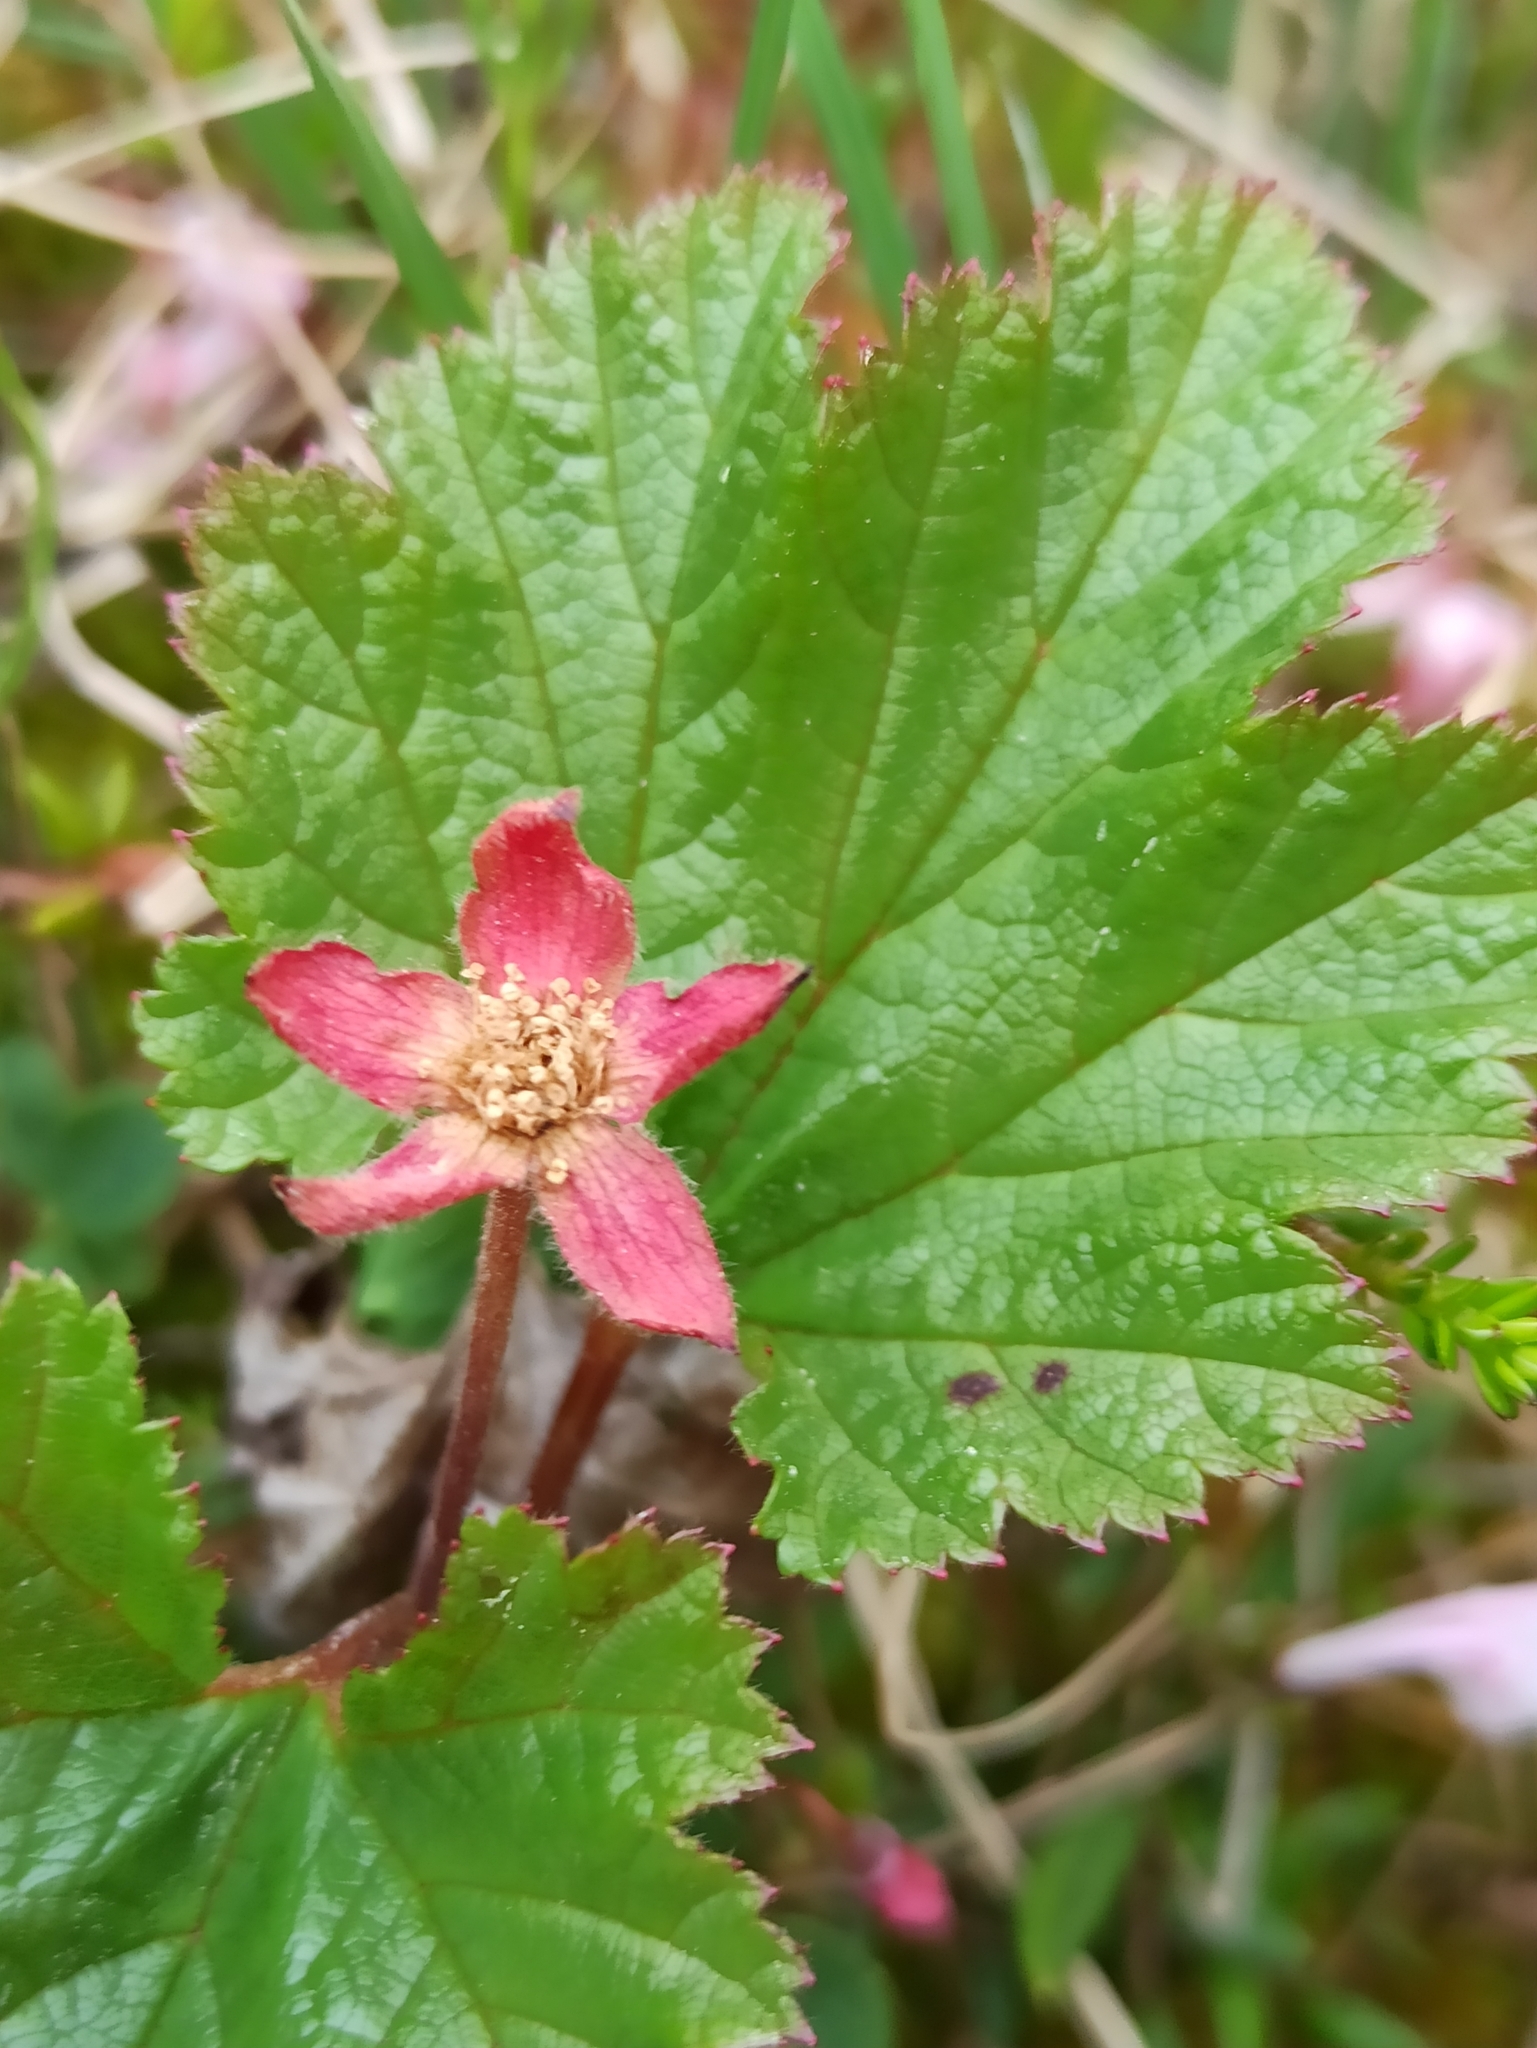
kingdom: Plantae
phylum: Tracheophyta
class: Magnoliopsida
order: Rosales
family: Rosaceae
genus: Rubus
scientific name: Rubus chamaemorus
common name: Cloudberry
